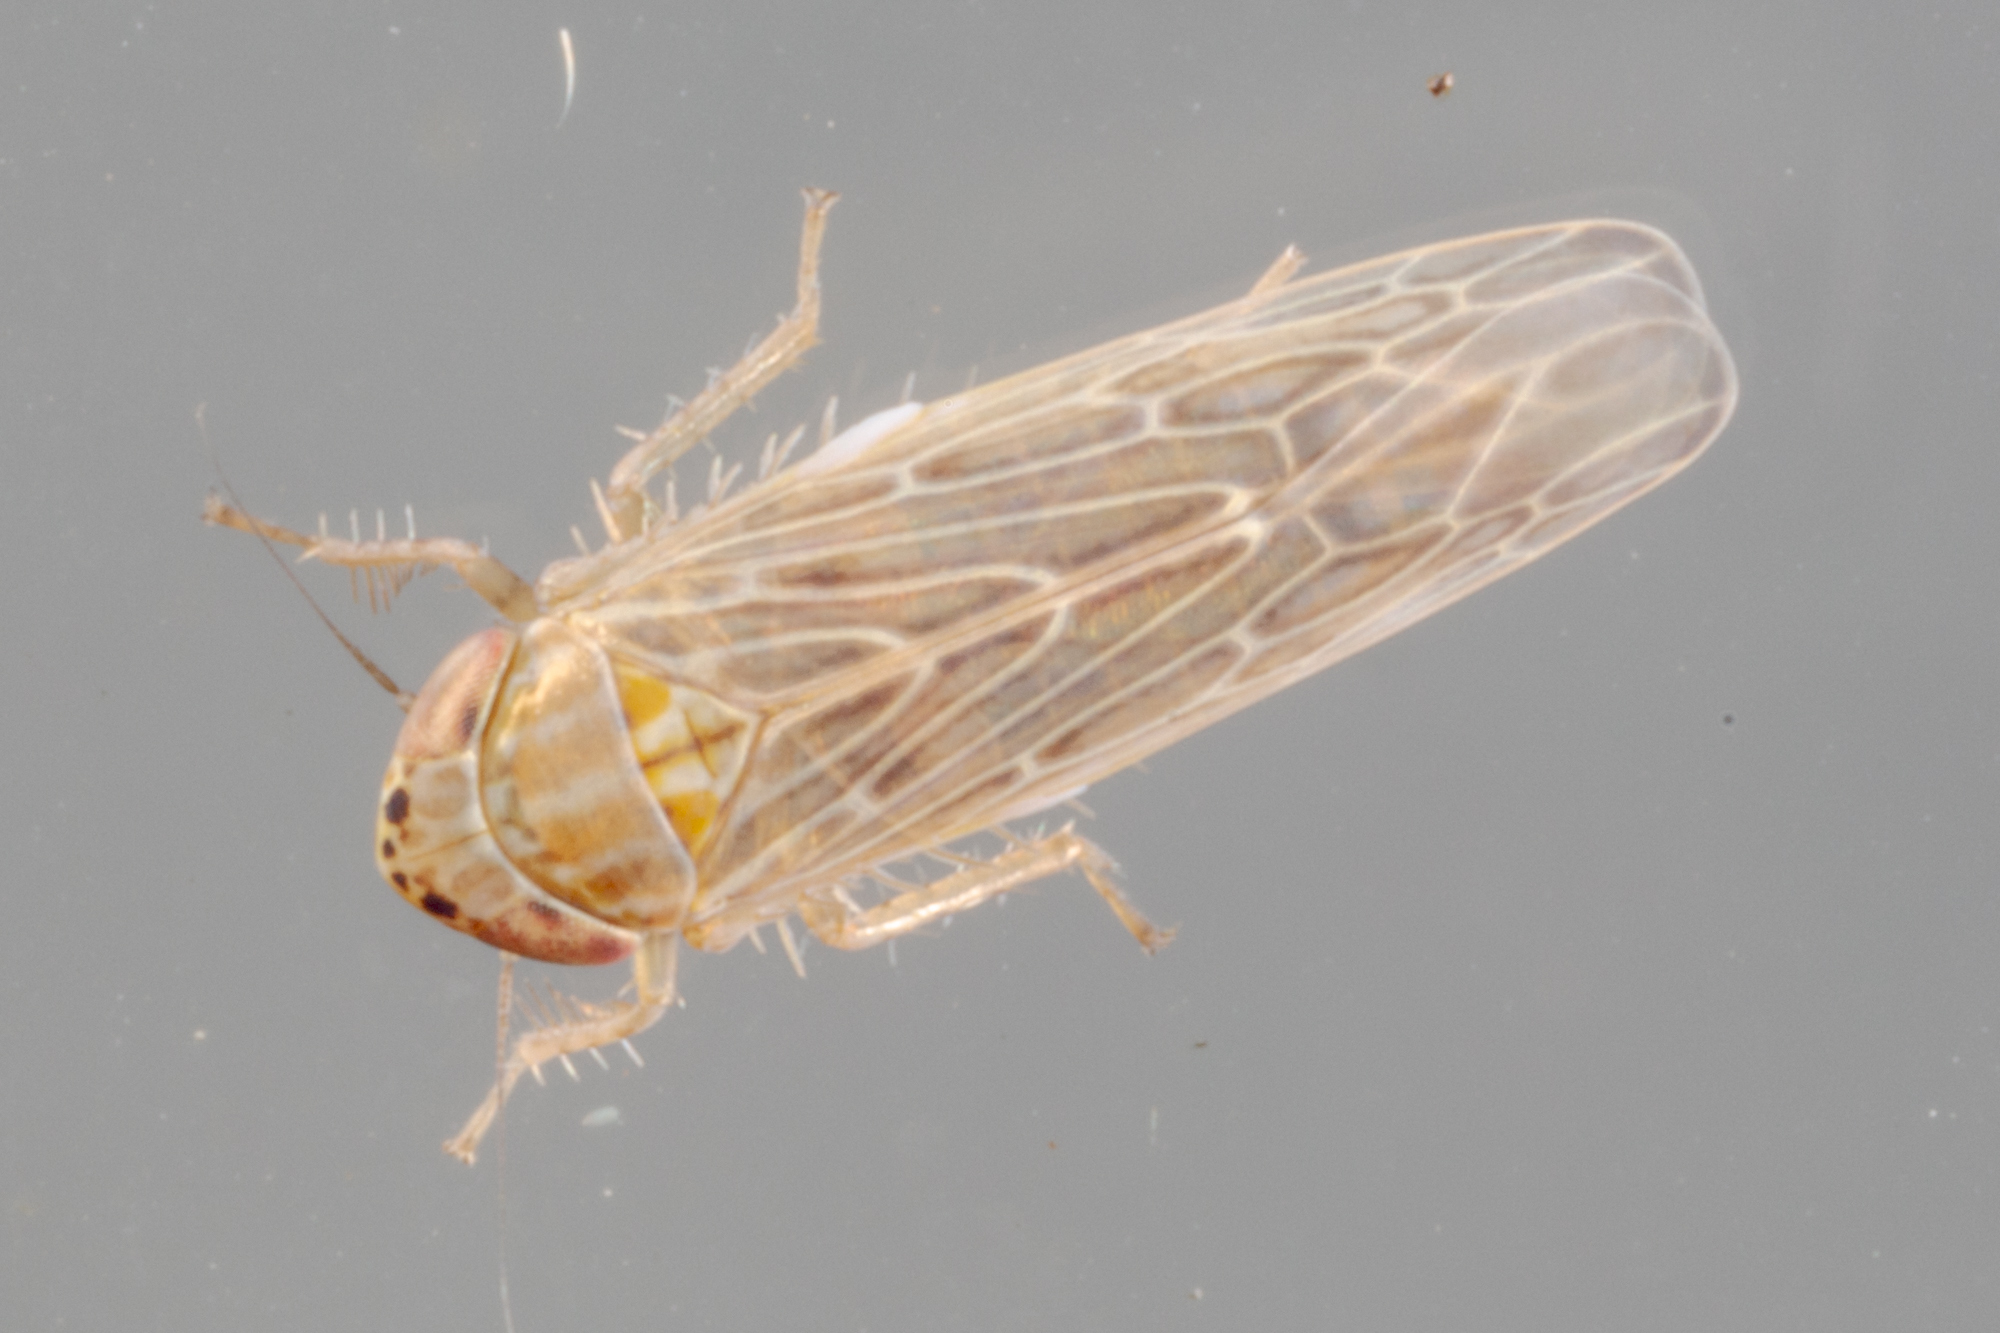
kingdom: Animalia
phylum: Arthropoda
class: Insecta
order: Hemiptera
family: Cicadellidae
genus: Graminella
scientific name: Graminella sonora
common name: Lesser lawn leafhopper
